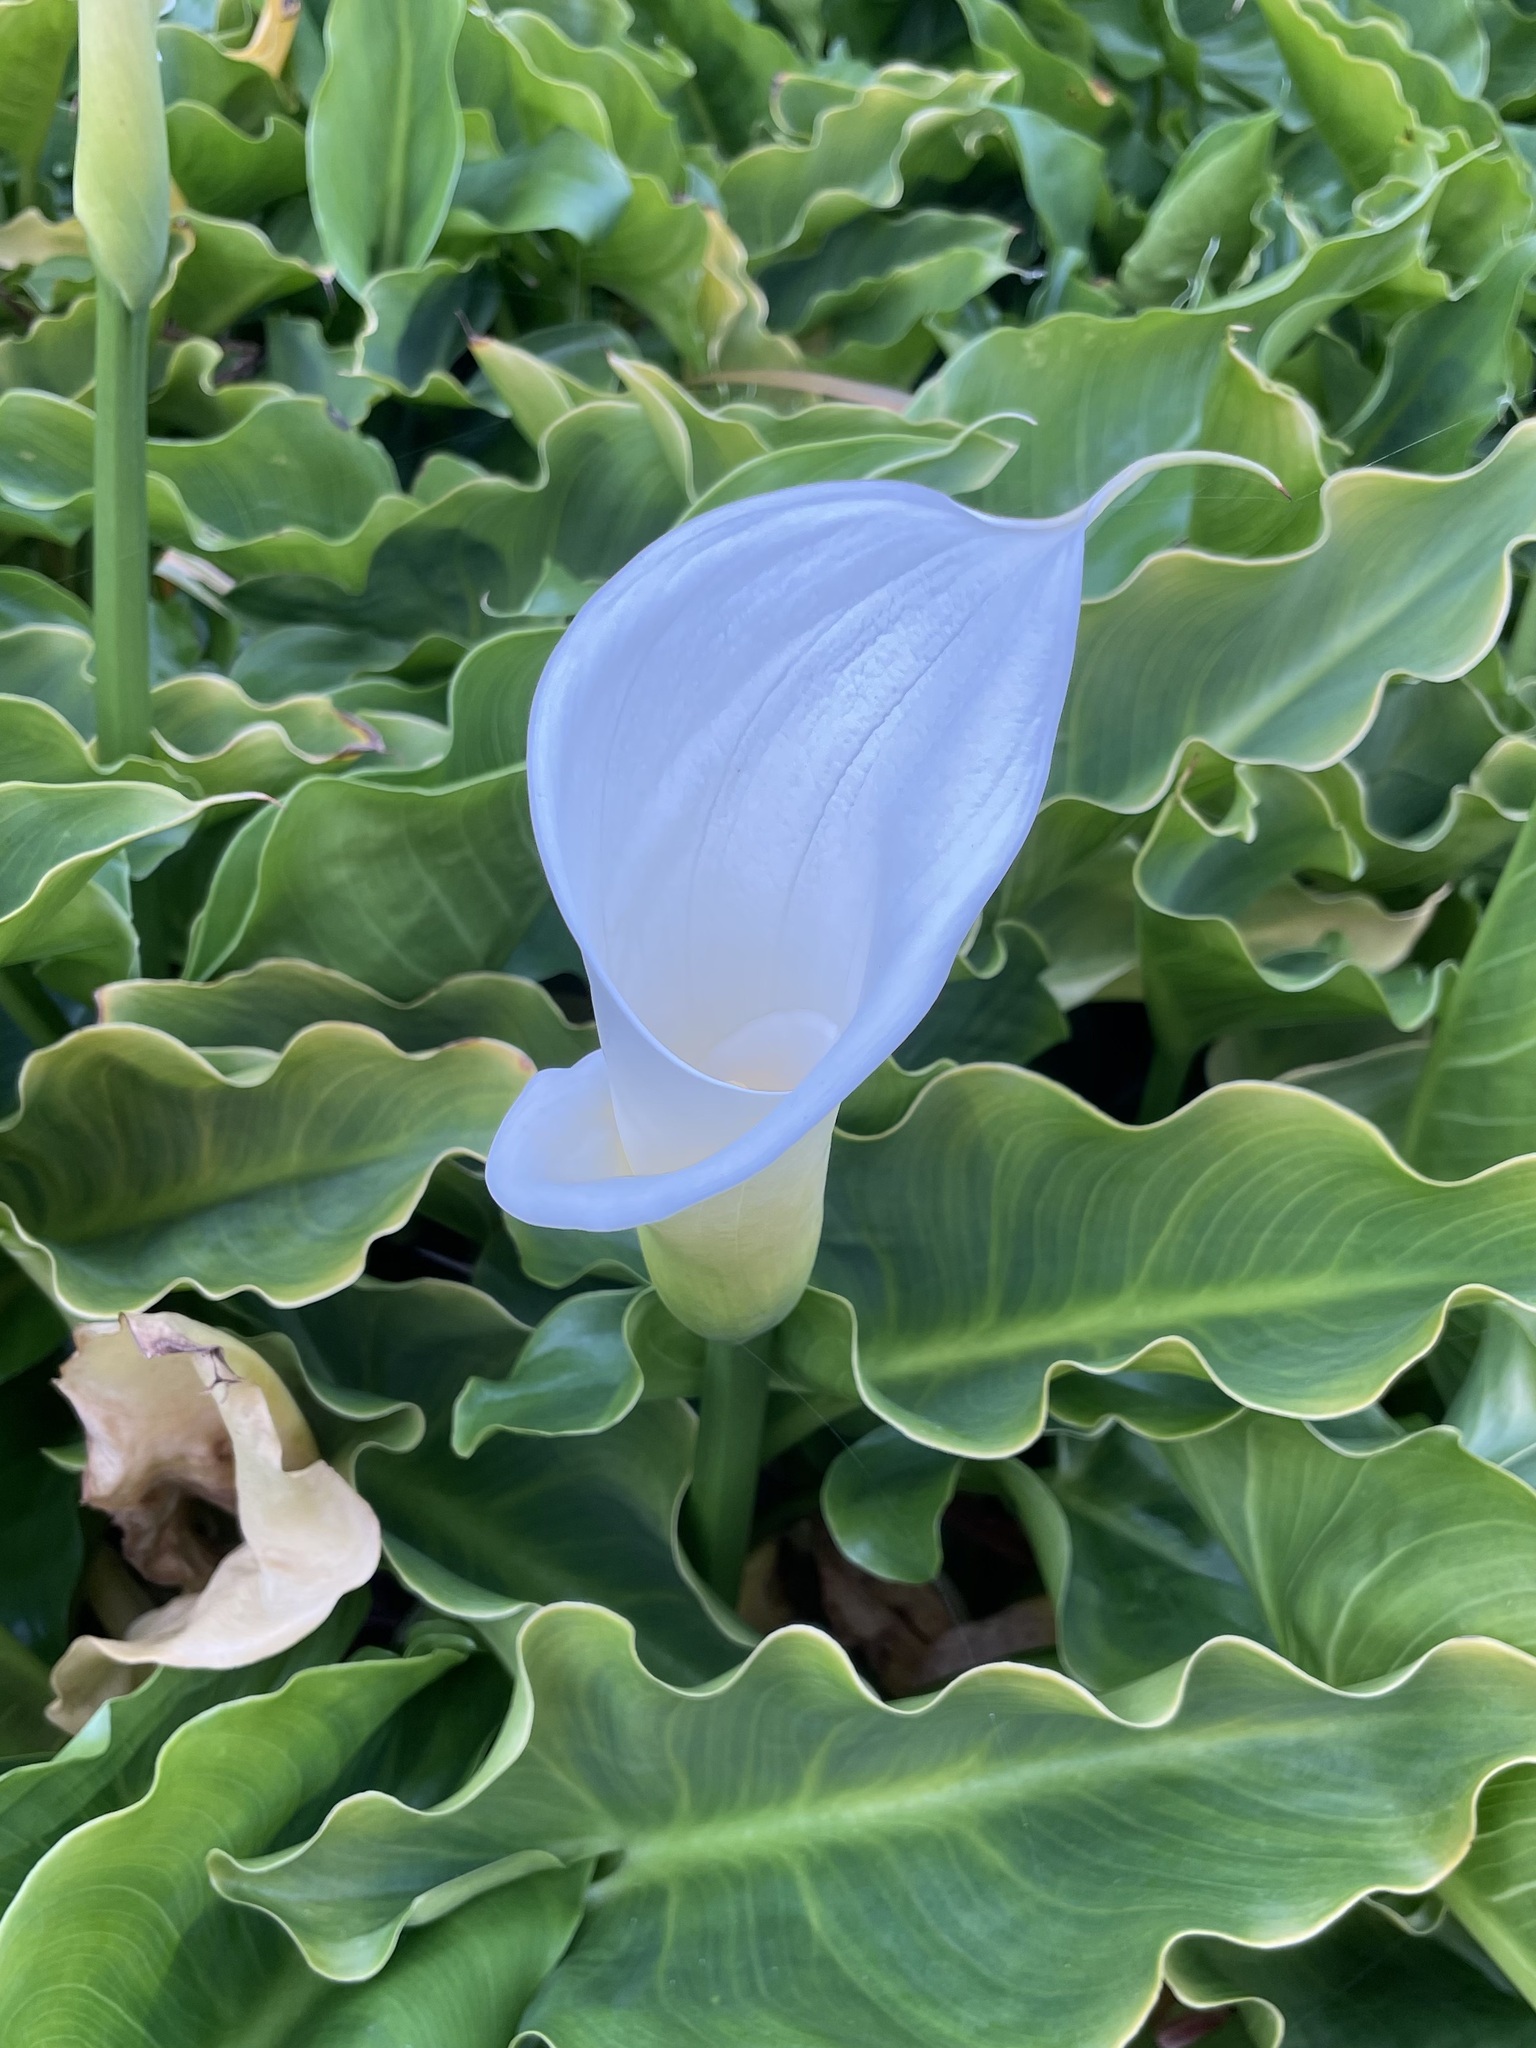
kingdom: Plantae
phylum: Tracheophyta
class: Liliopsida
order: Alismatales
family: Araceae
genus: Zantedeschia
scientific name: Zantedeschia aethiopica
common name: Altar-lily
